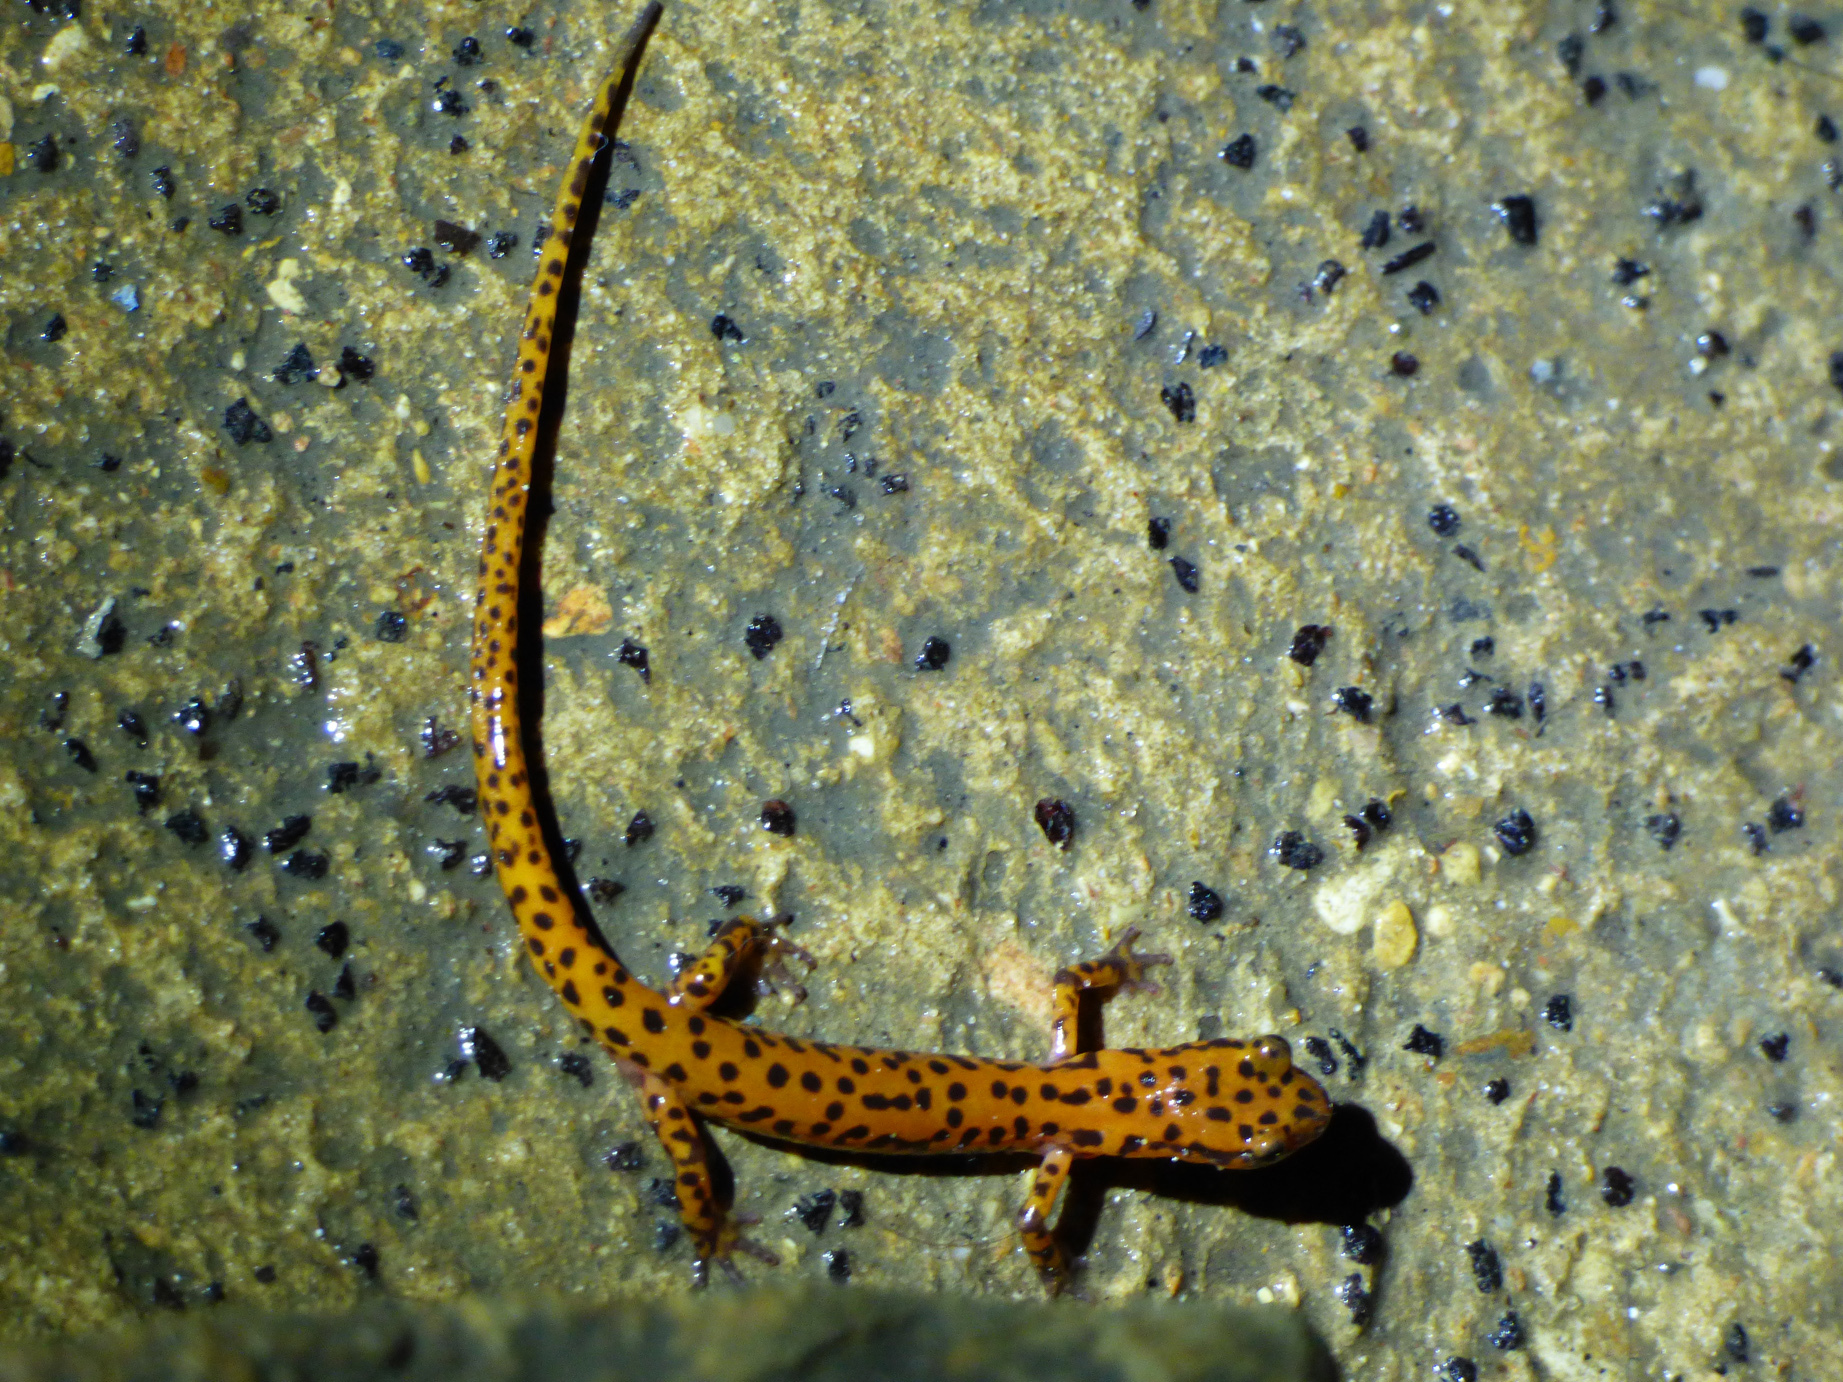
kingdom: Animalia
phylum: Chordata
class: Amphibia
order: Caudata
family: Plethodontidae
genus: Eurycea
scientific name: Eurycea lucifuga
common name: Cave salamander
